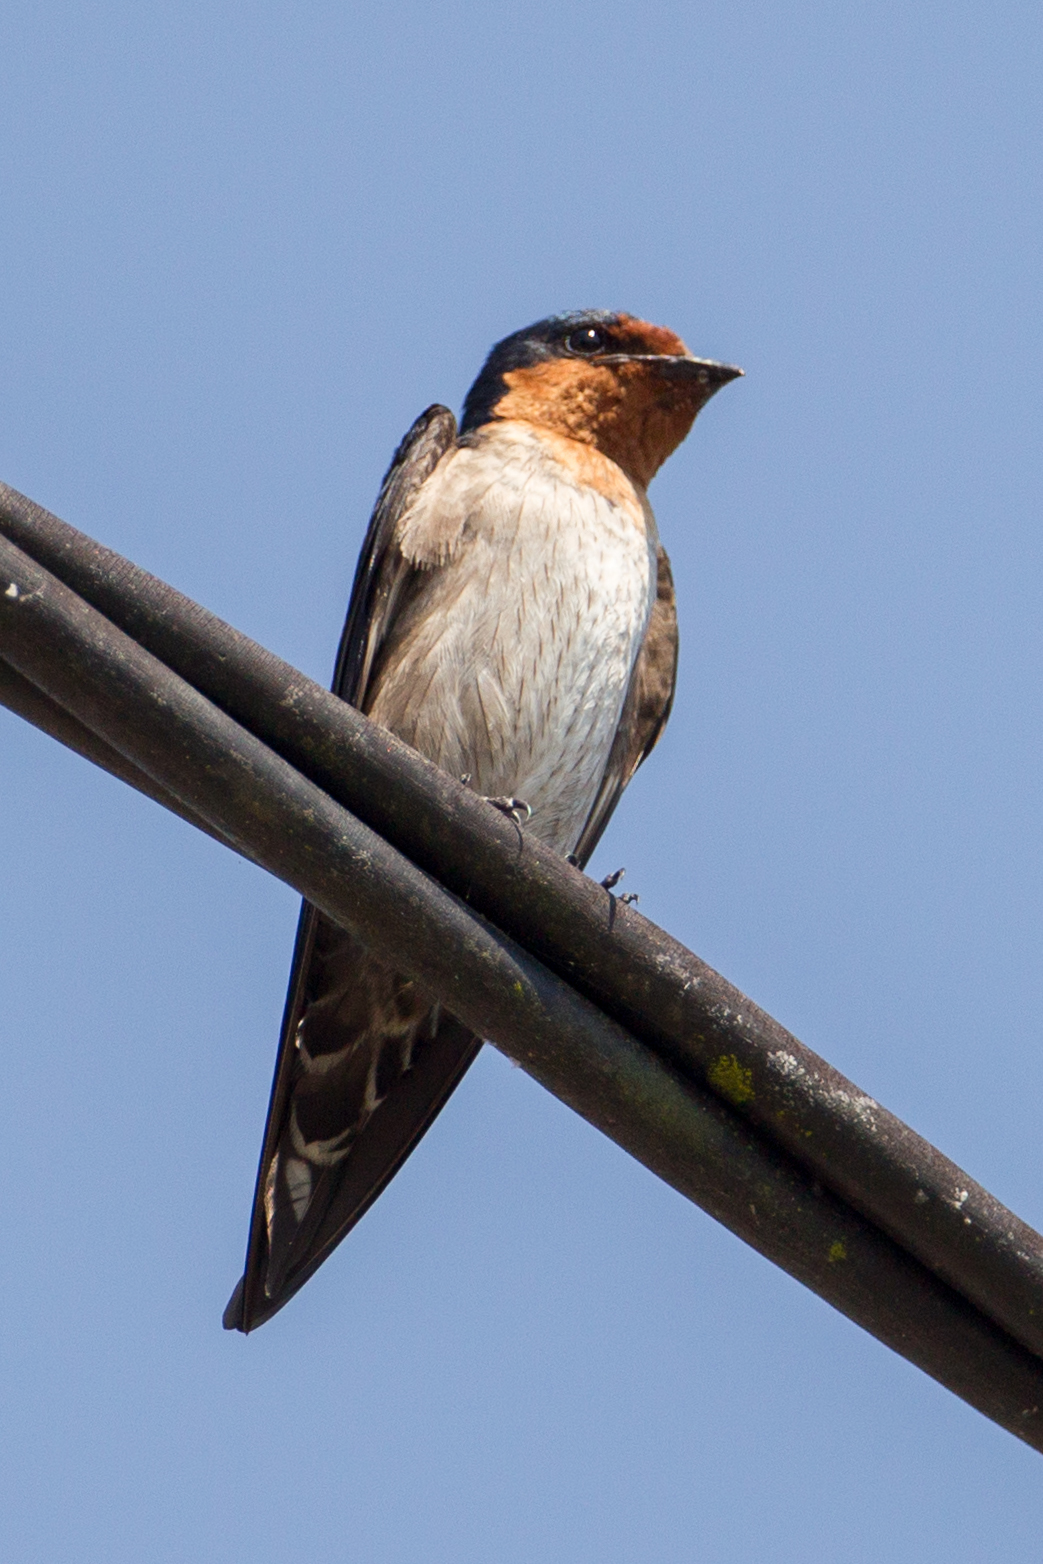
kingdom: Animalia
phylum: Chordata
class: Aves
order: Passeriformes
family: Hirundinidae
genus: Hirundo
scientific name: Hirundo tahitica
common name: Pacific swallow
